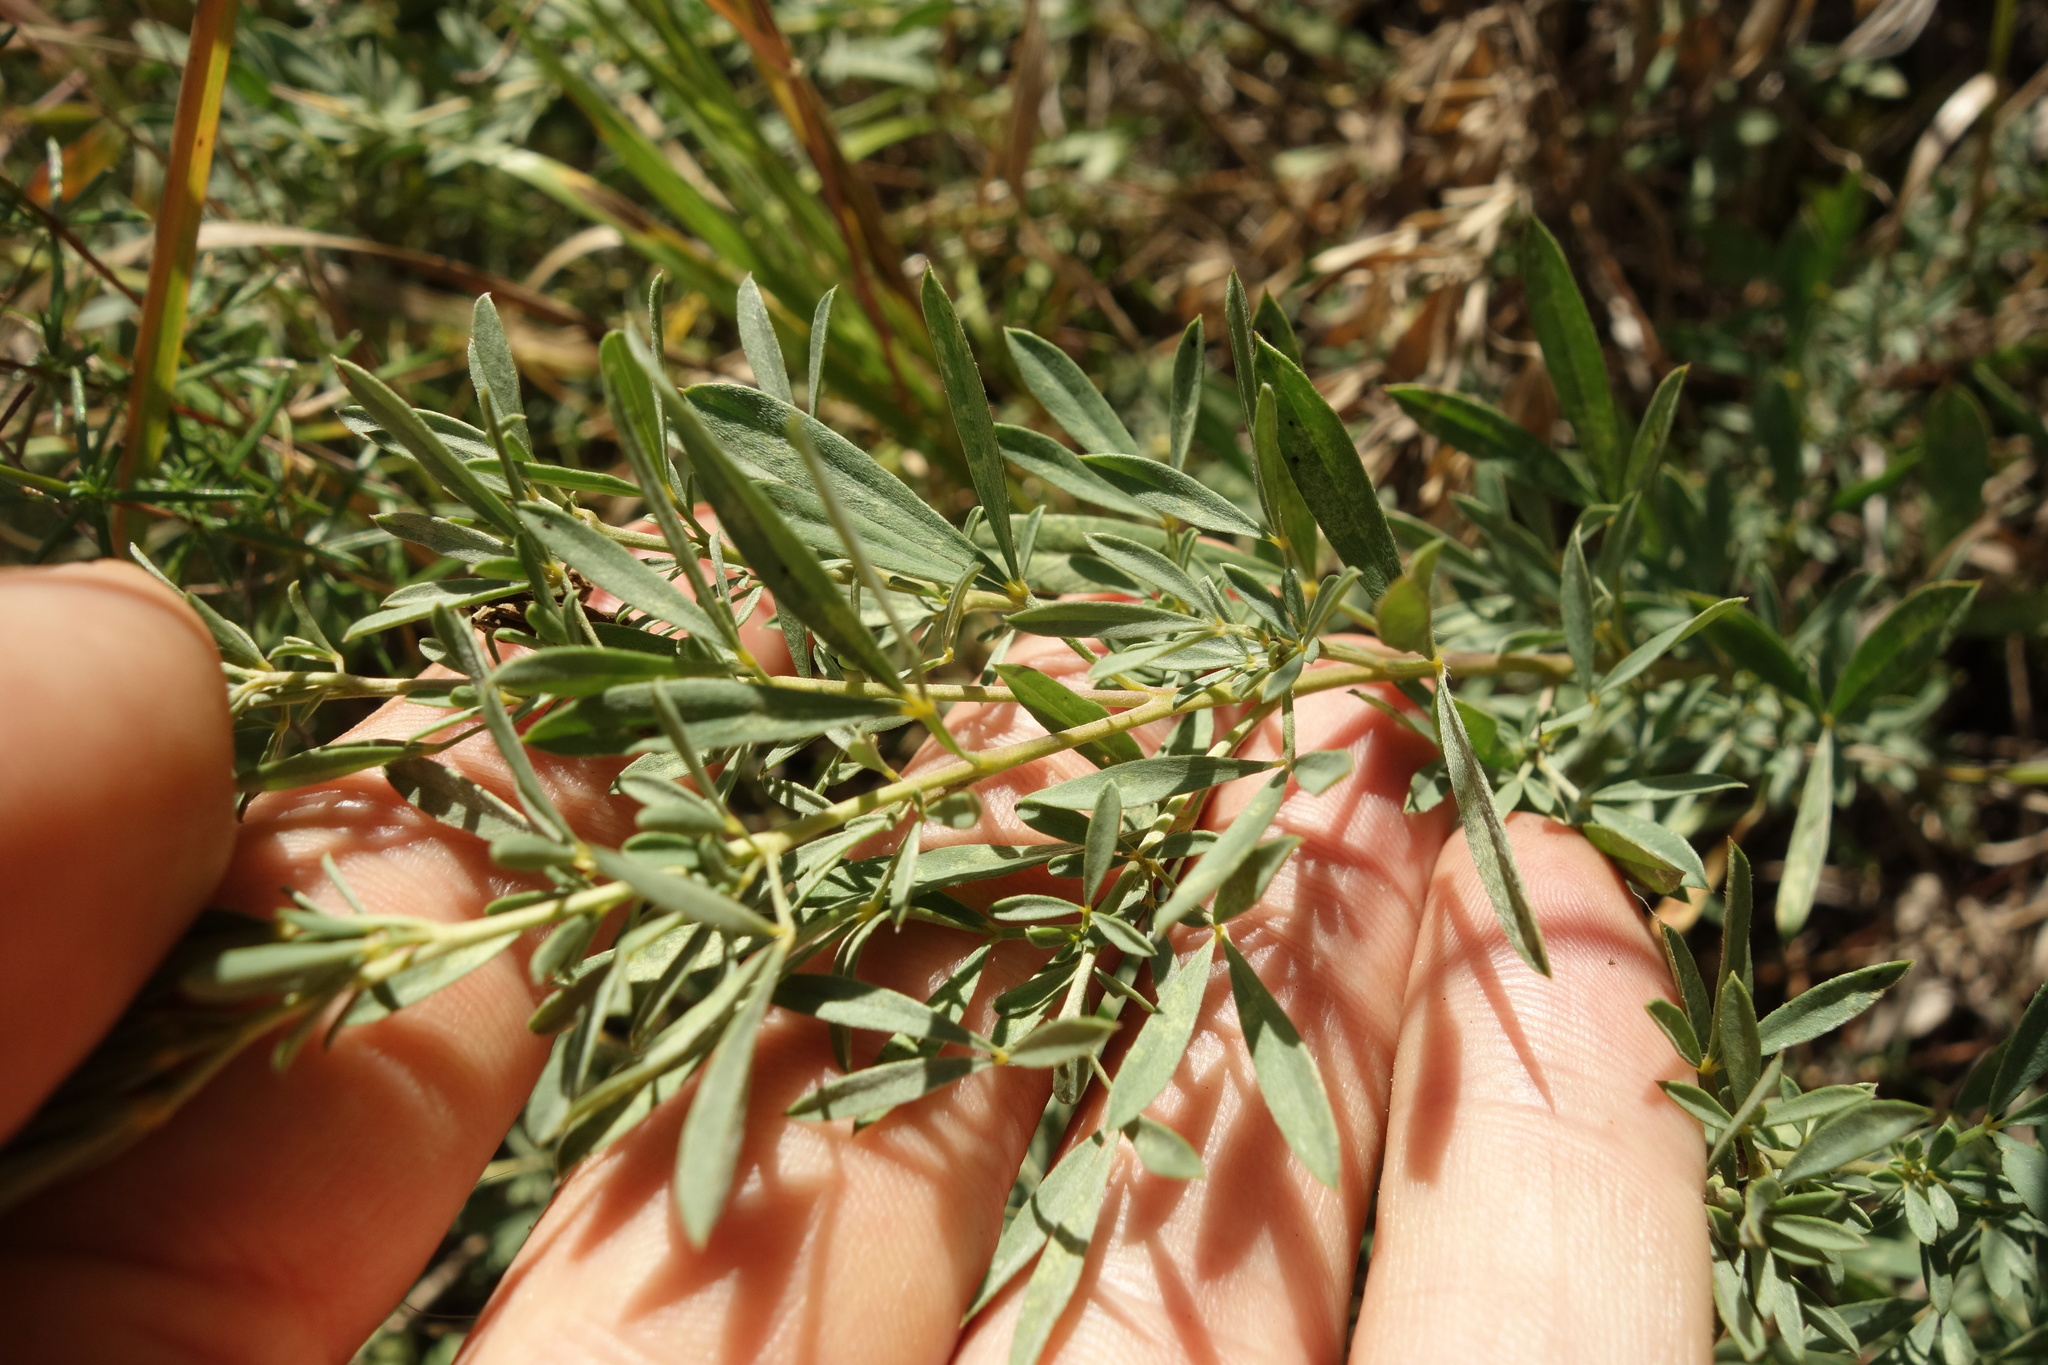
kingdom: Plantae
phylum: Tracheophyta
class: Magnoliopsida
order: Fabales
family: Fabaceae
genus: Chamaecytisus
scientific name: Chamaecytisus austriacus
